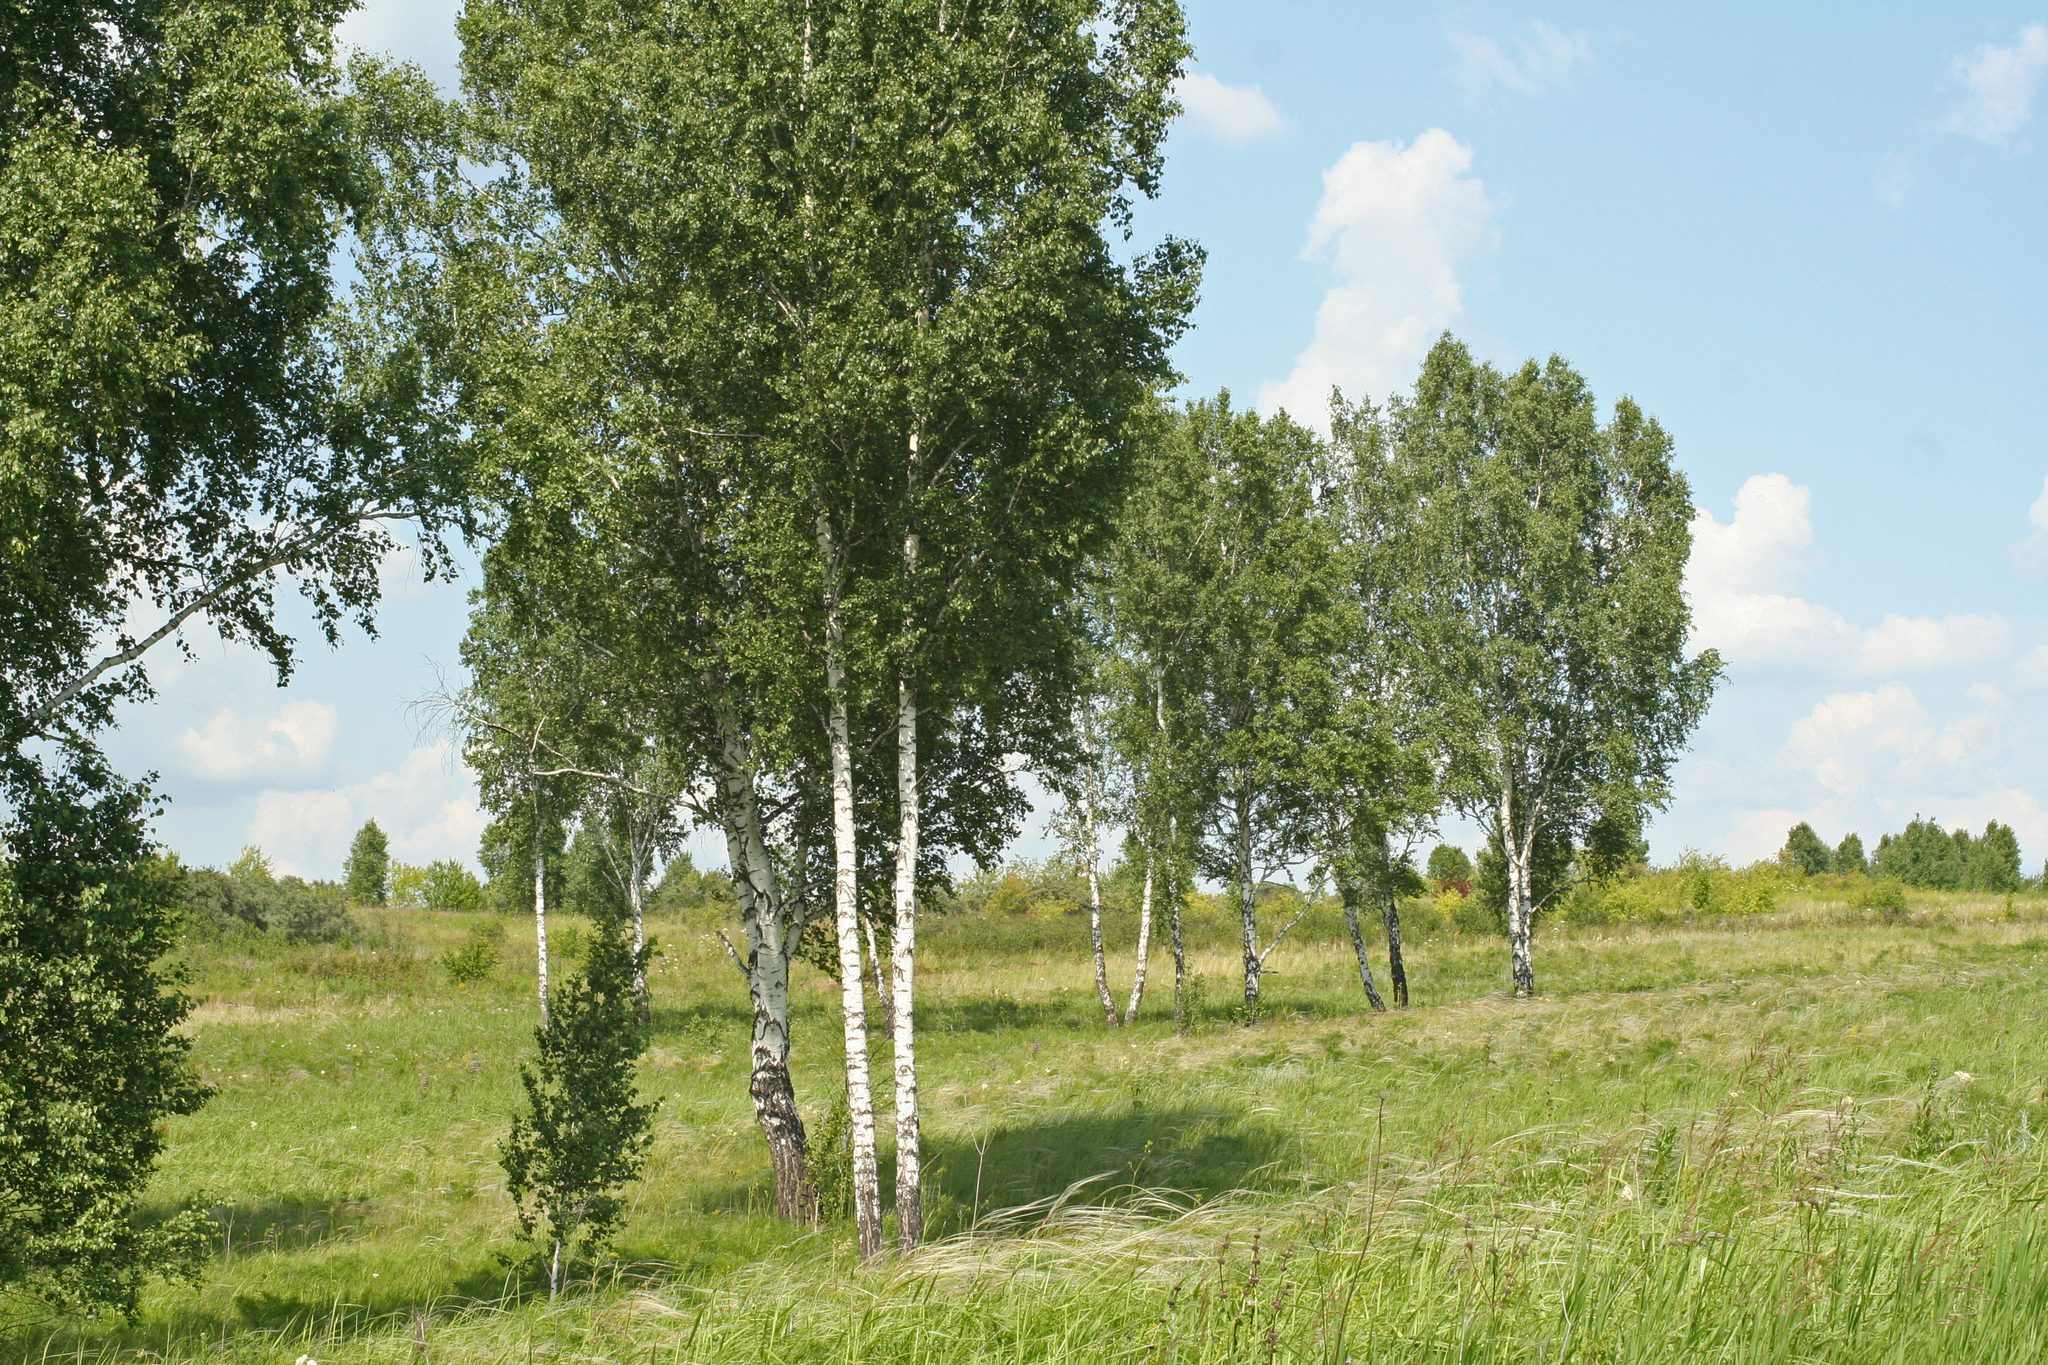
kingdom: Plantae
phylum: Tracheophyta
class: Magnoliopsida
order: Fagales
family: Betulaceae
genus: Betula
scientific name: Betula pendula
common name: Silver birch
